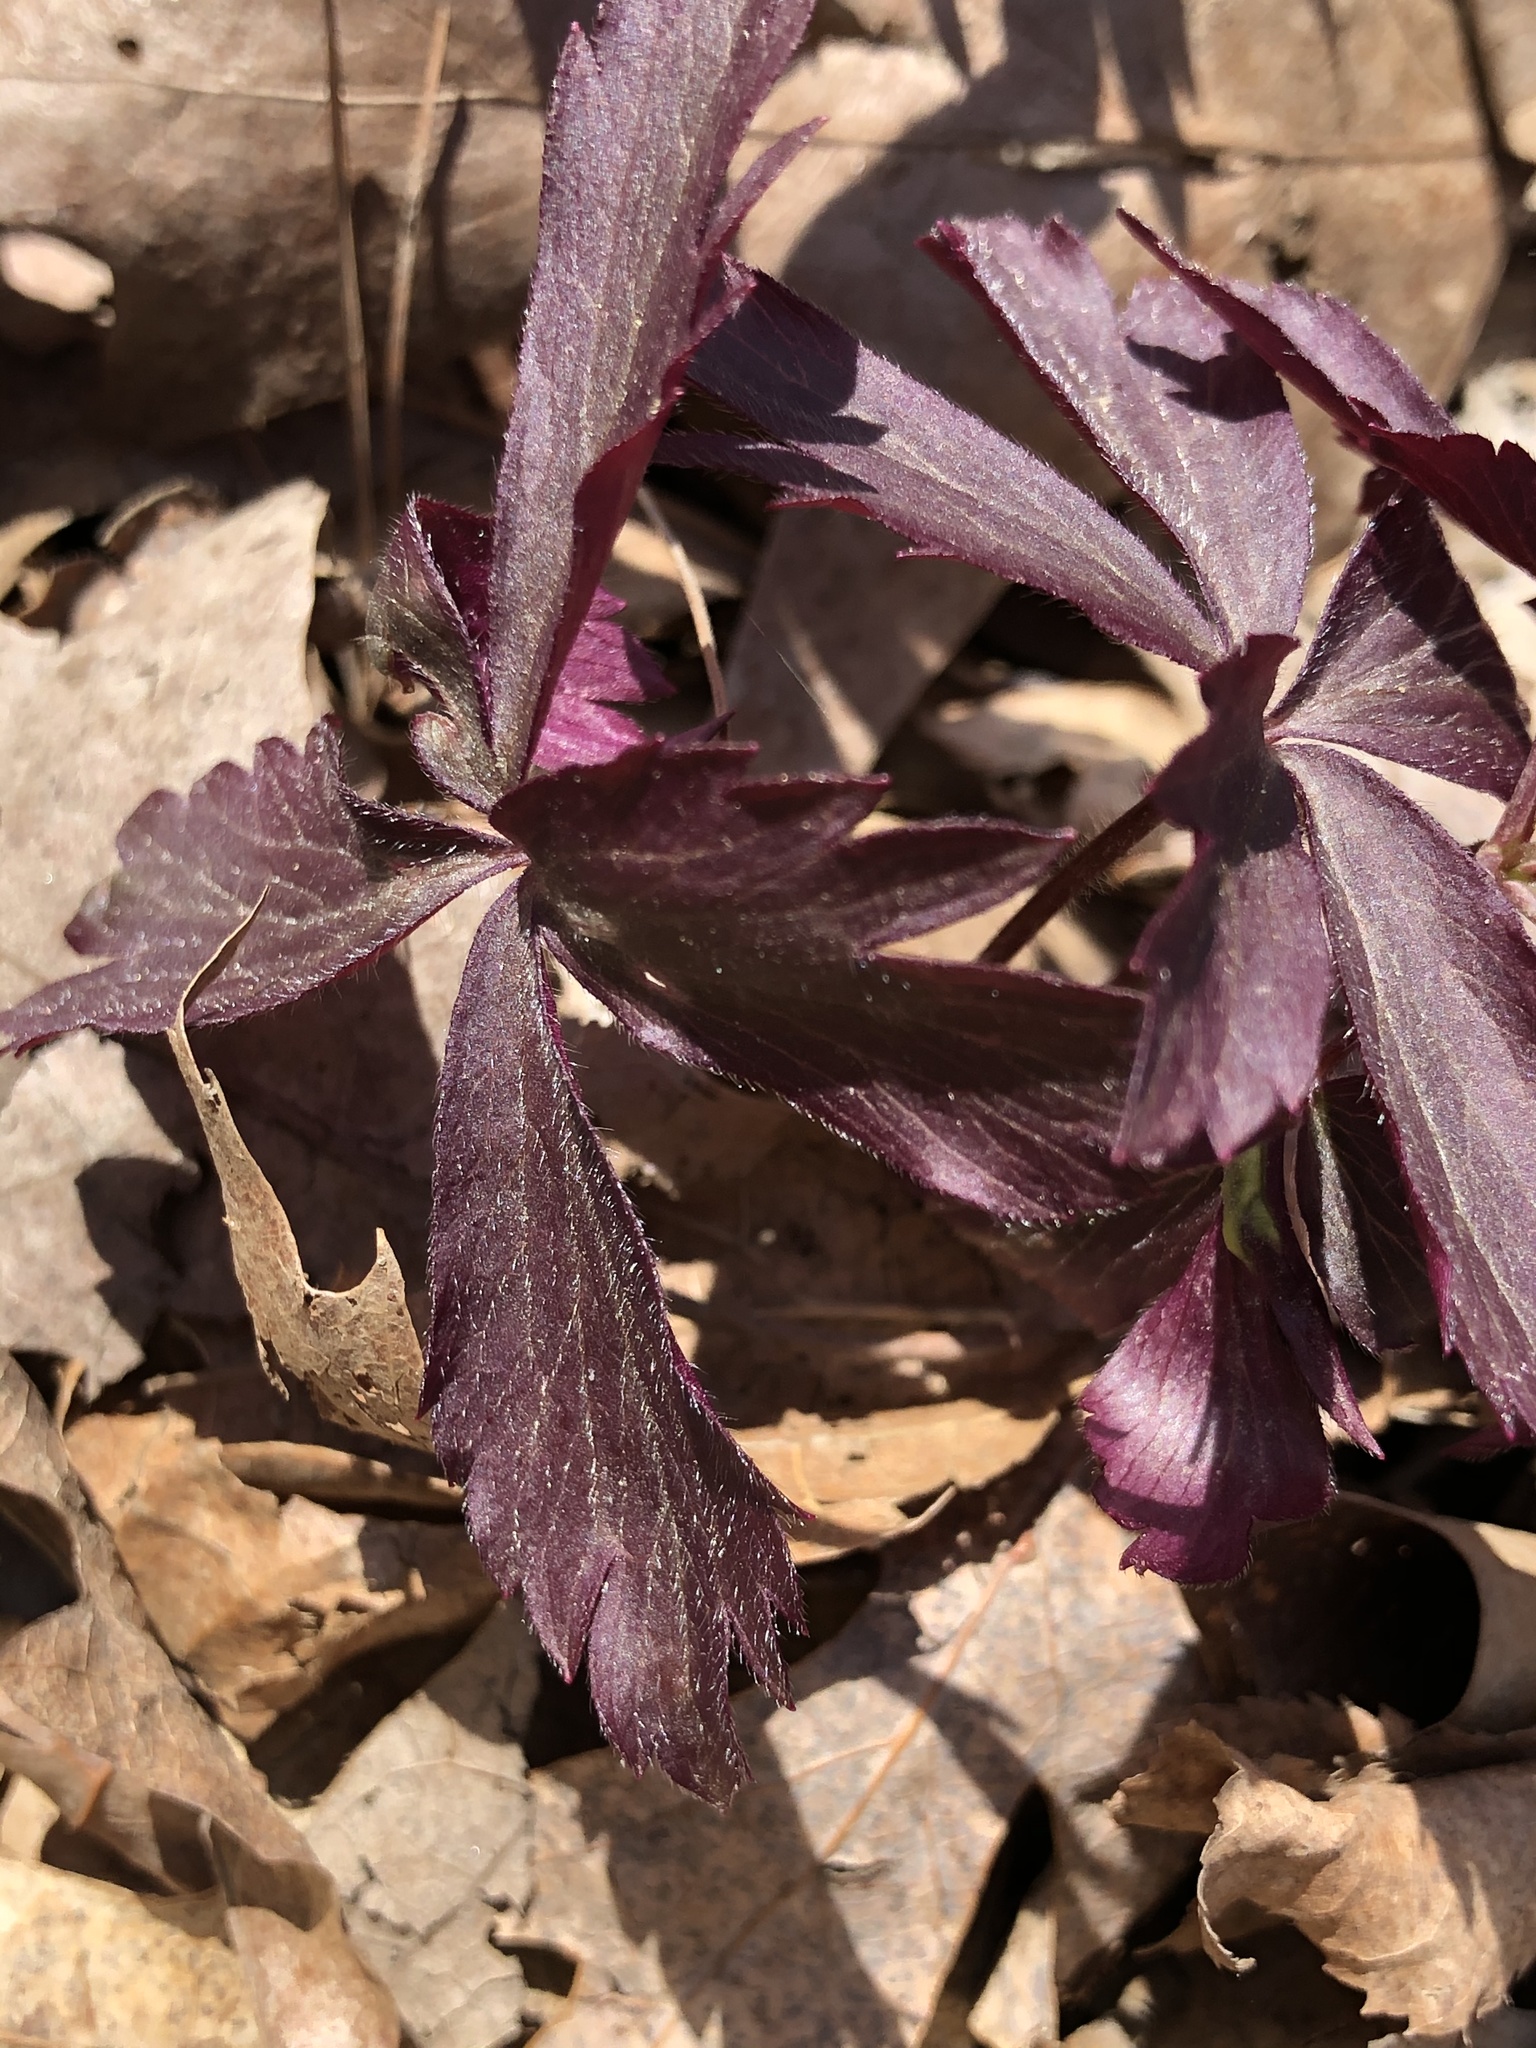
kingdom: Plantae
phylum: Tracheophyta
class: Magnoliopsida
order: Ranunculales
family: Ranunculaceae
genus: Anemone
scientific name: Anemone quinquefolia
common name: Wood anemone
